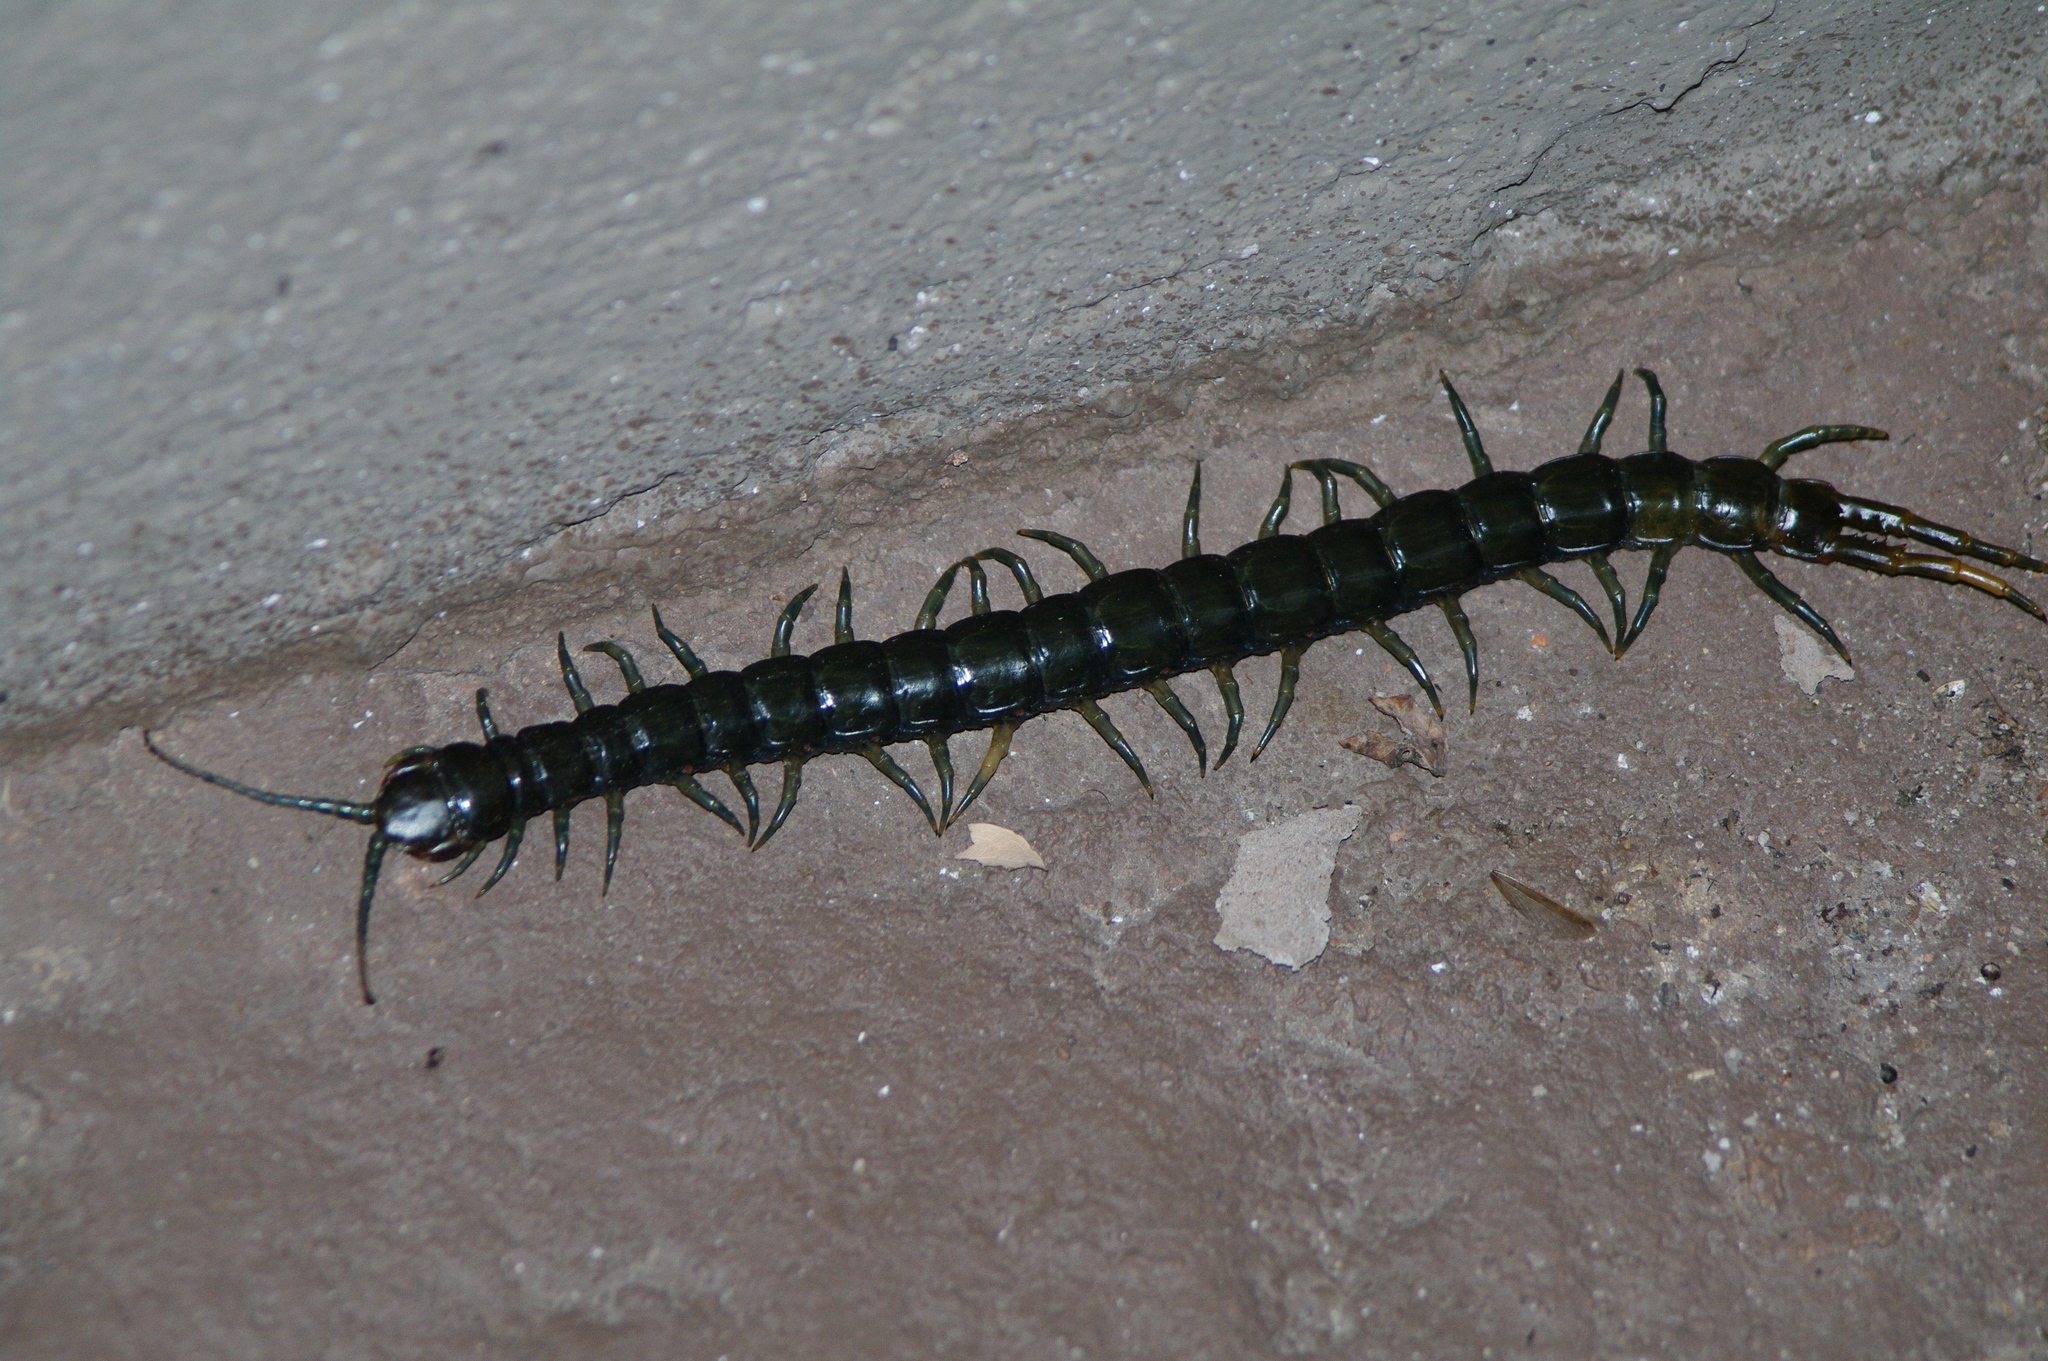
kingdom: Animalia
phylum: Arthropoda
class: Chilopoda
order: Scolopendromorpha
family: Scolopendridae
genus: Ethmostigmus
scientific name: Ethmostigmus trigonopodus
